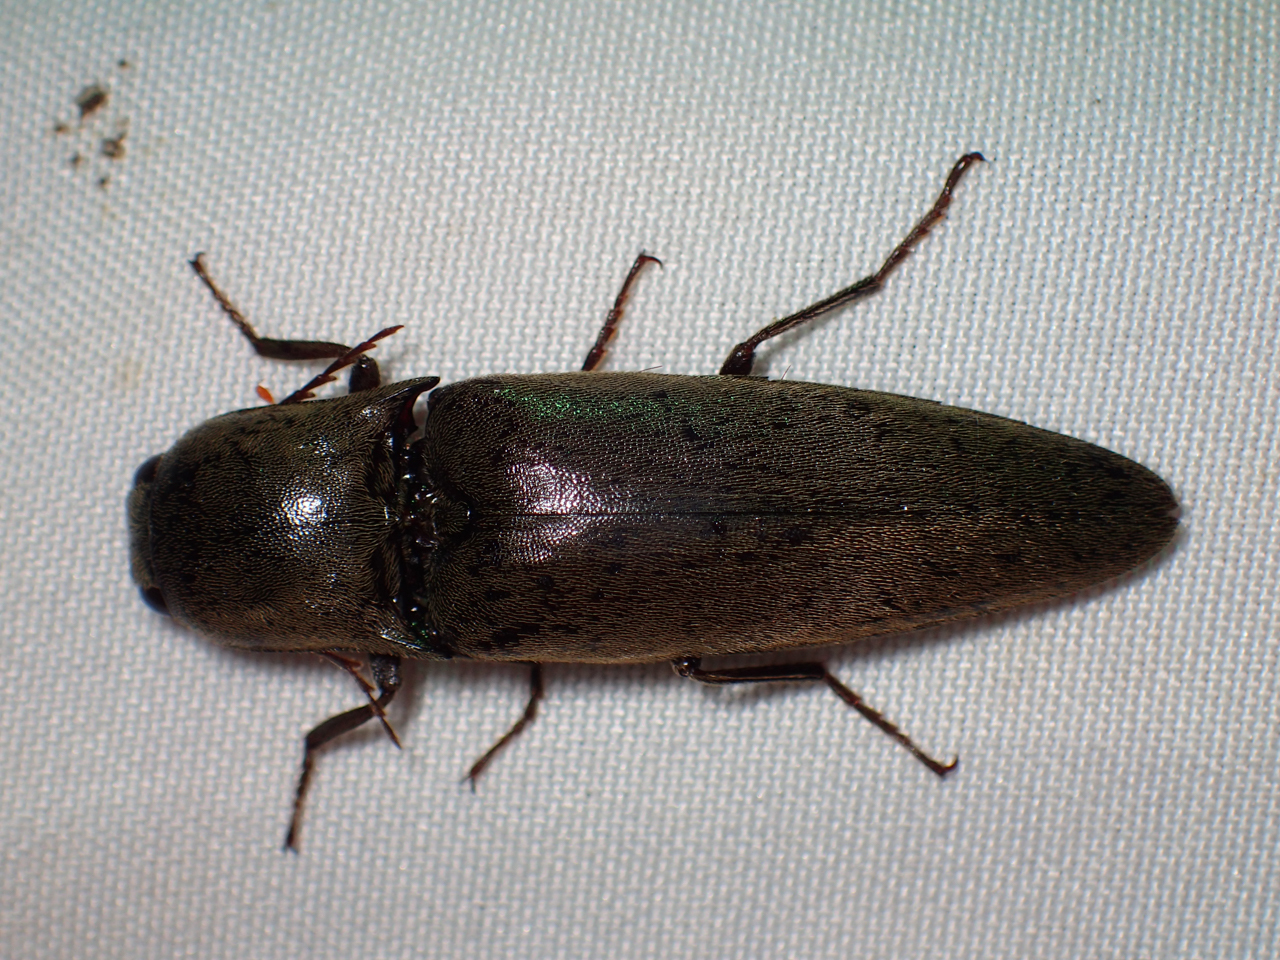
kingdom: Animalia
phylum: Arthropoda
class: Insecta
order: Coleoptera
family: Elateridae
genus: Orthostethus
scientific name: Orthostethus infuscatus
